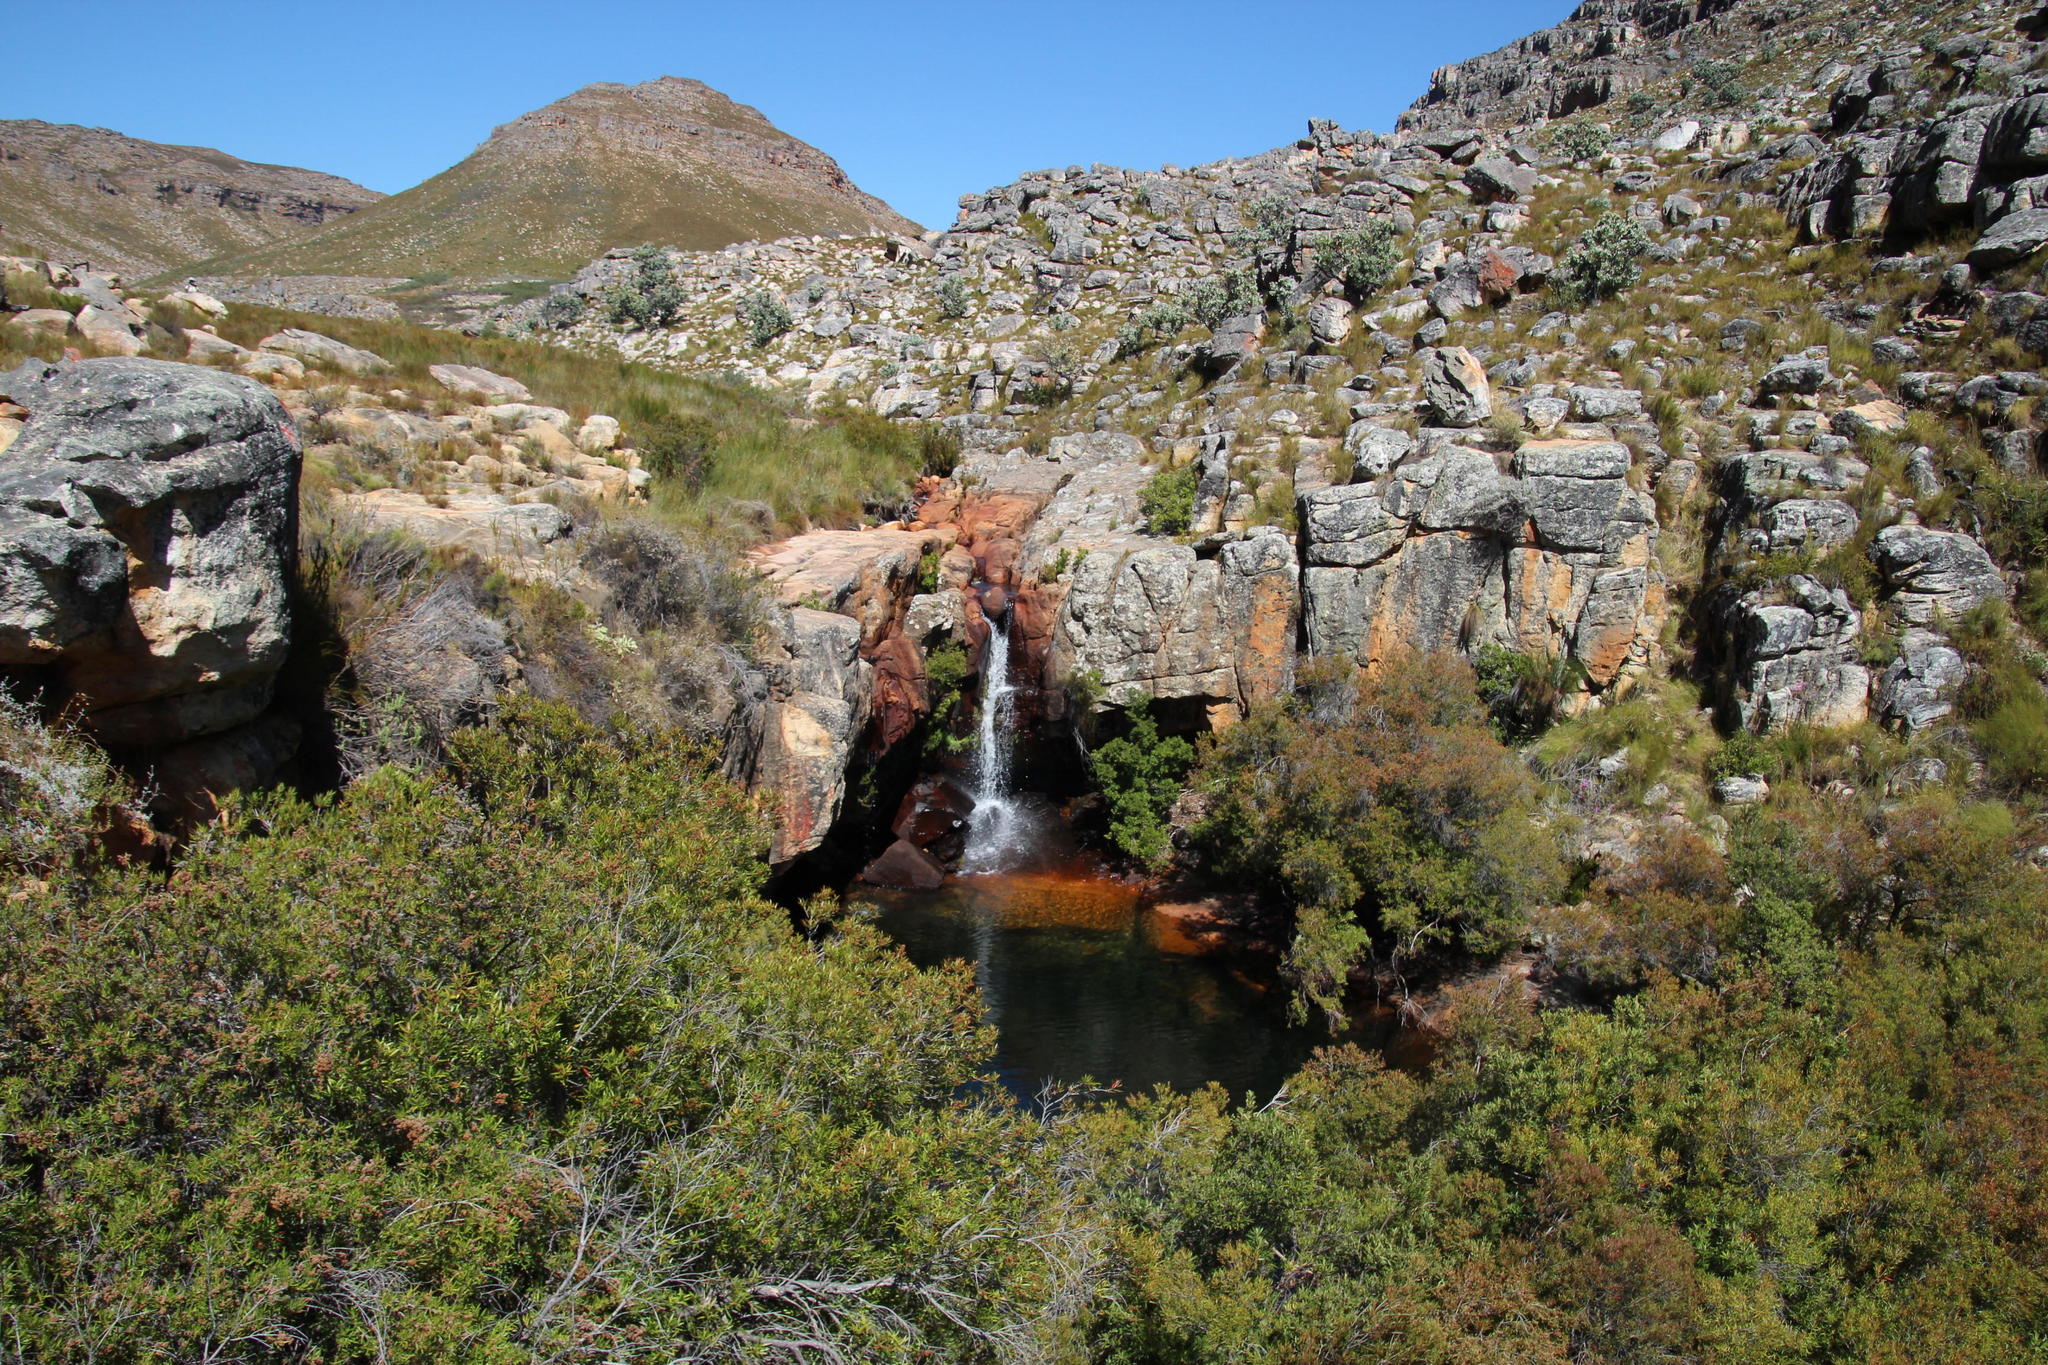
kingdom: Plantae
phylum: Tracheophyta
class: Magnoliopsida
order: Myrtales
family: Myrtaceae
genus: Callistemon
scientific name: Callistemon lanceolatus
